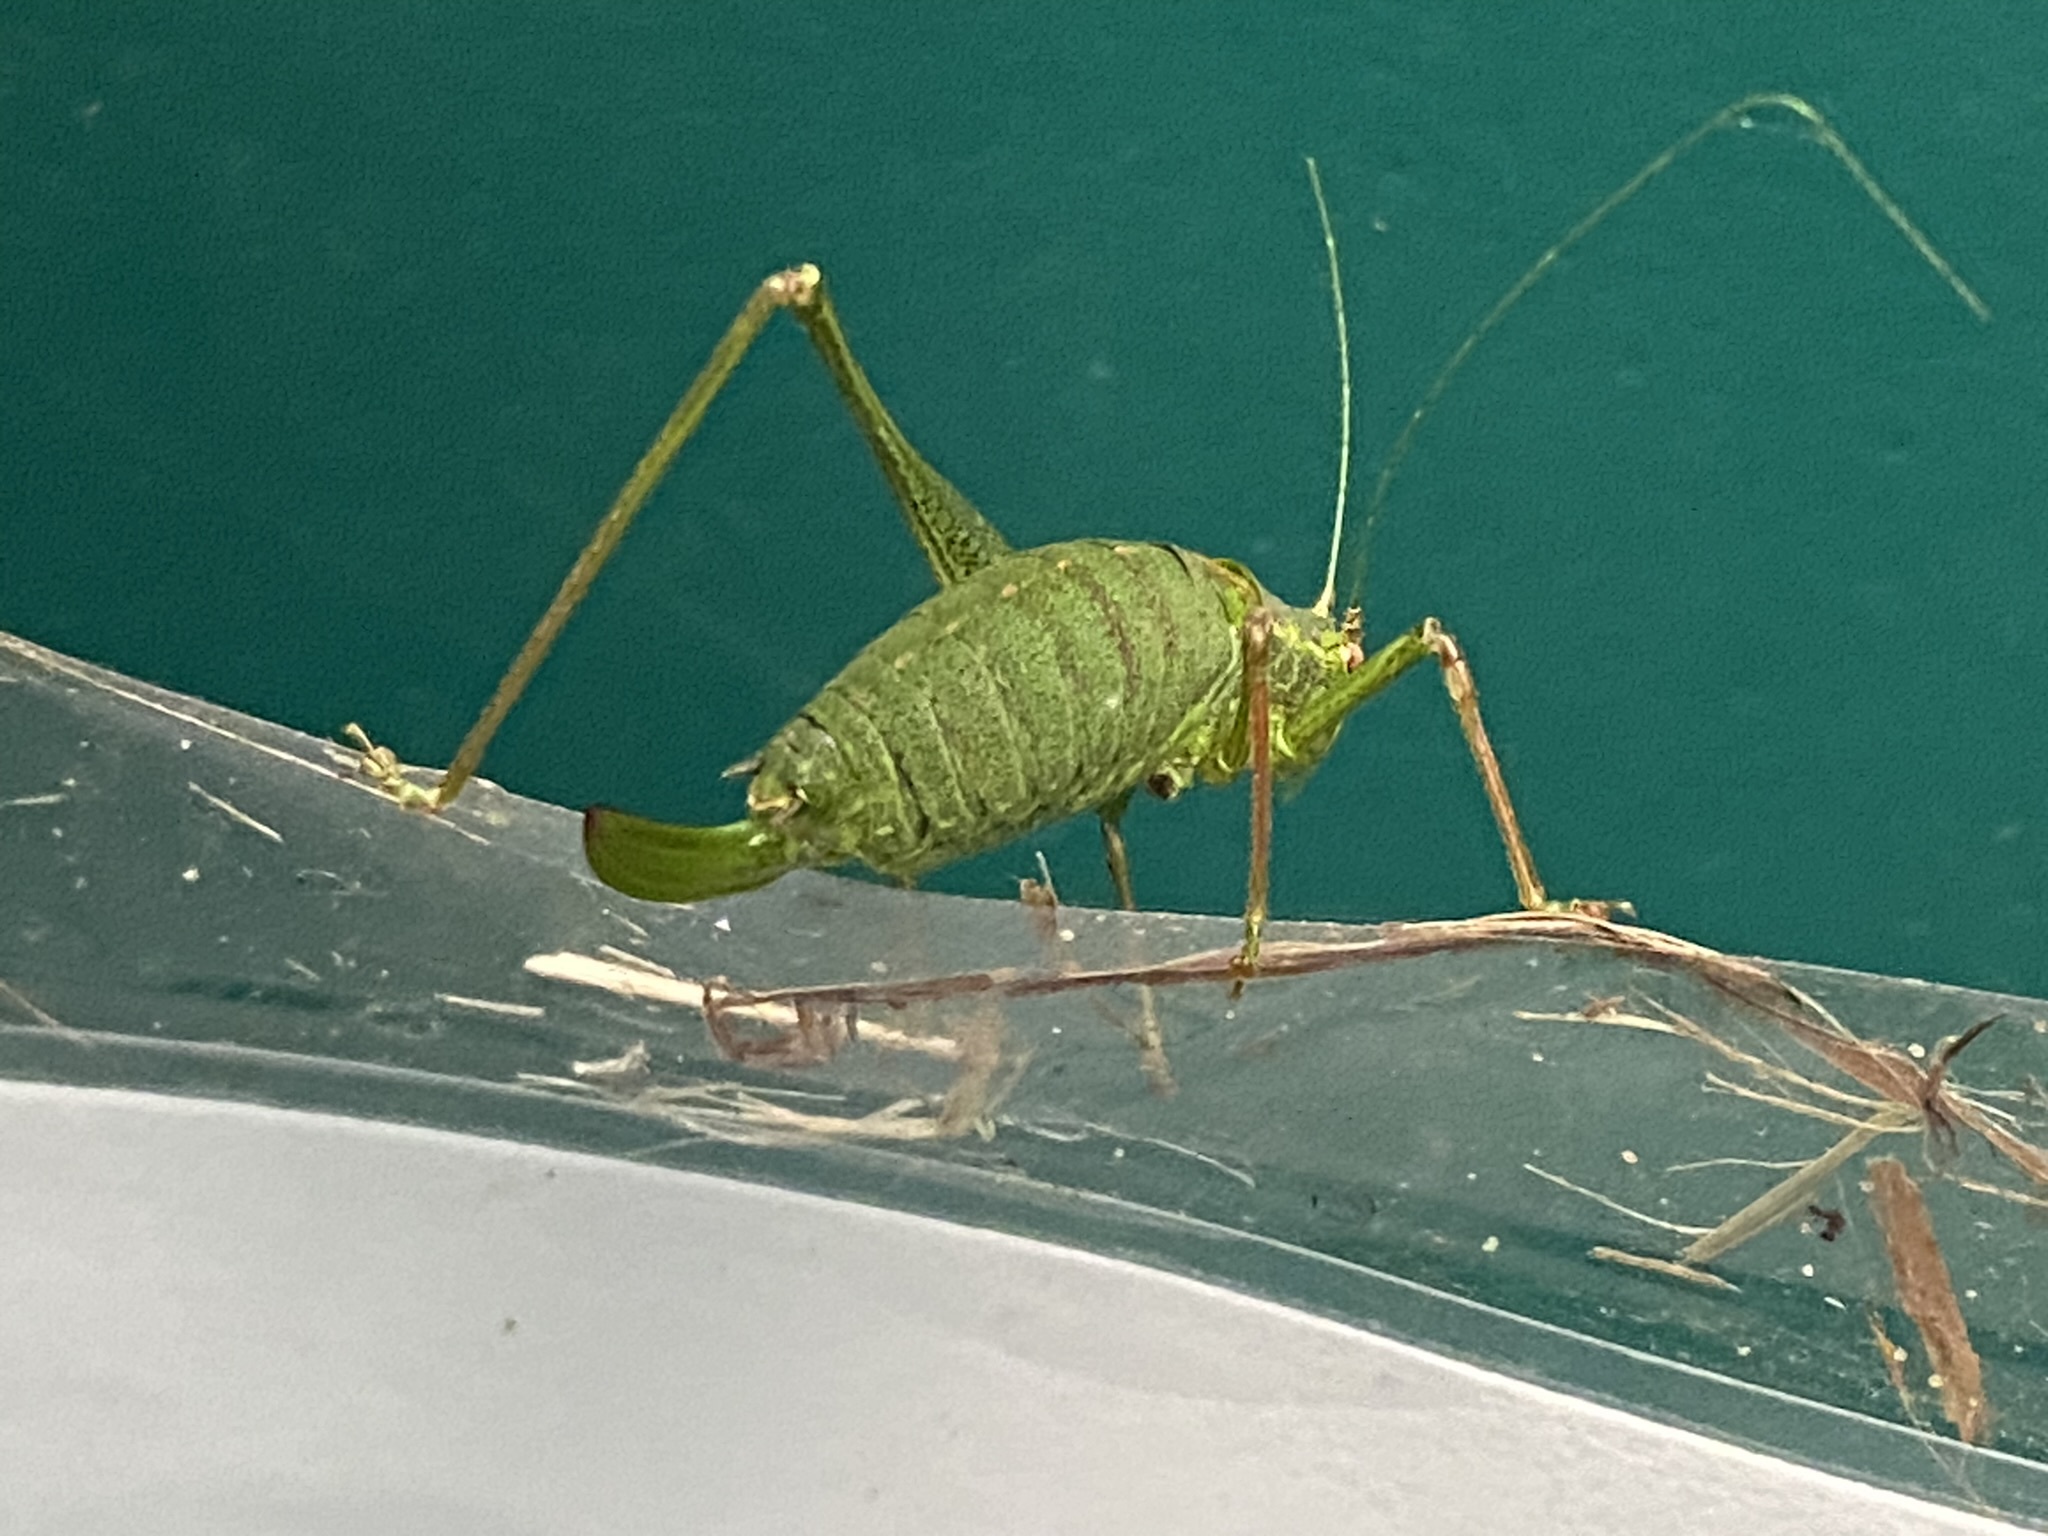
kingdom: Animalia
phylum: Arthropoda
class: Insecta
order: Orthoptera
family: Tettigoniidae
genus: Leptophyes
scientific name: Leptophyes punctatissima
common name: Speckled bush-cricket
